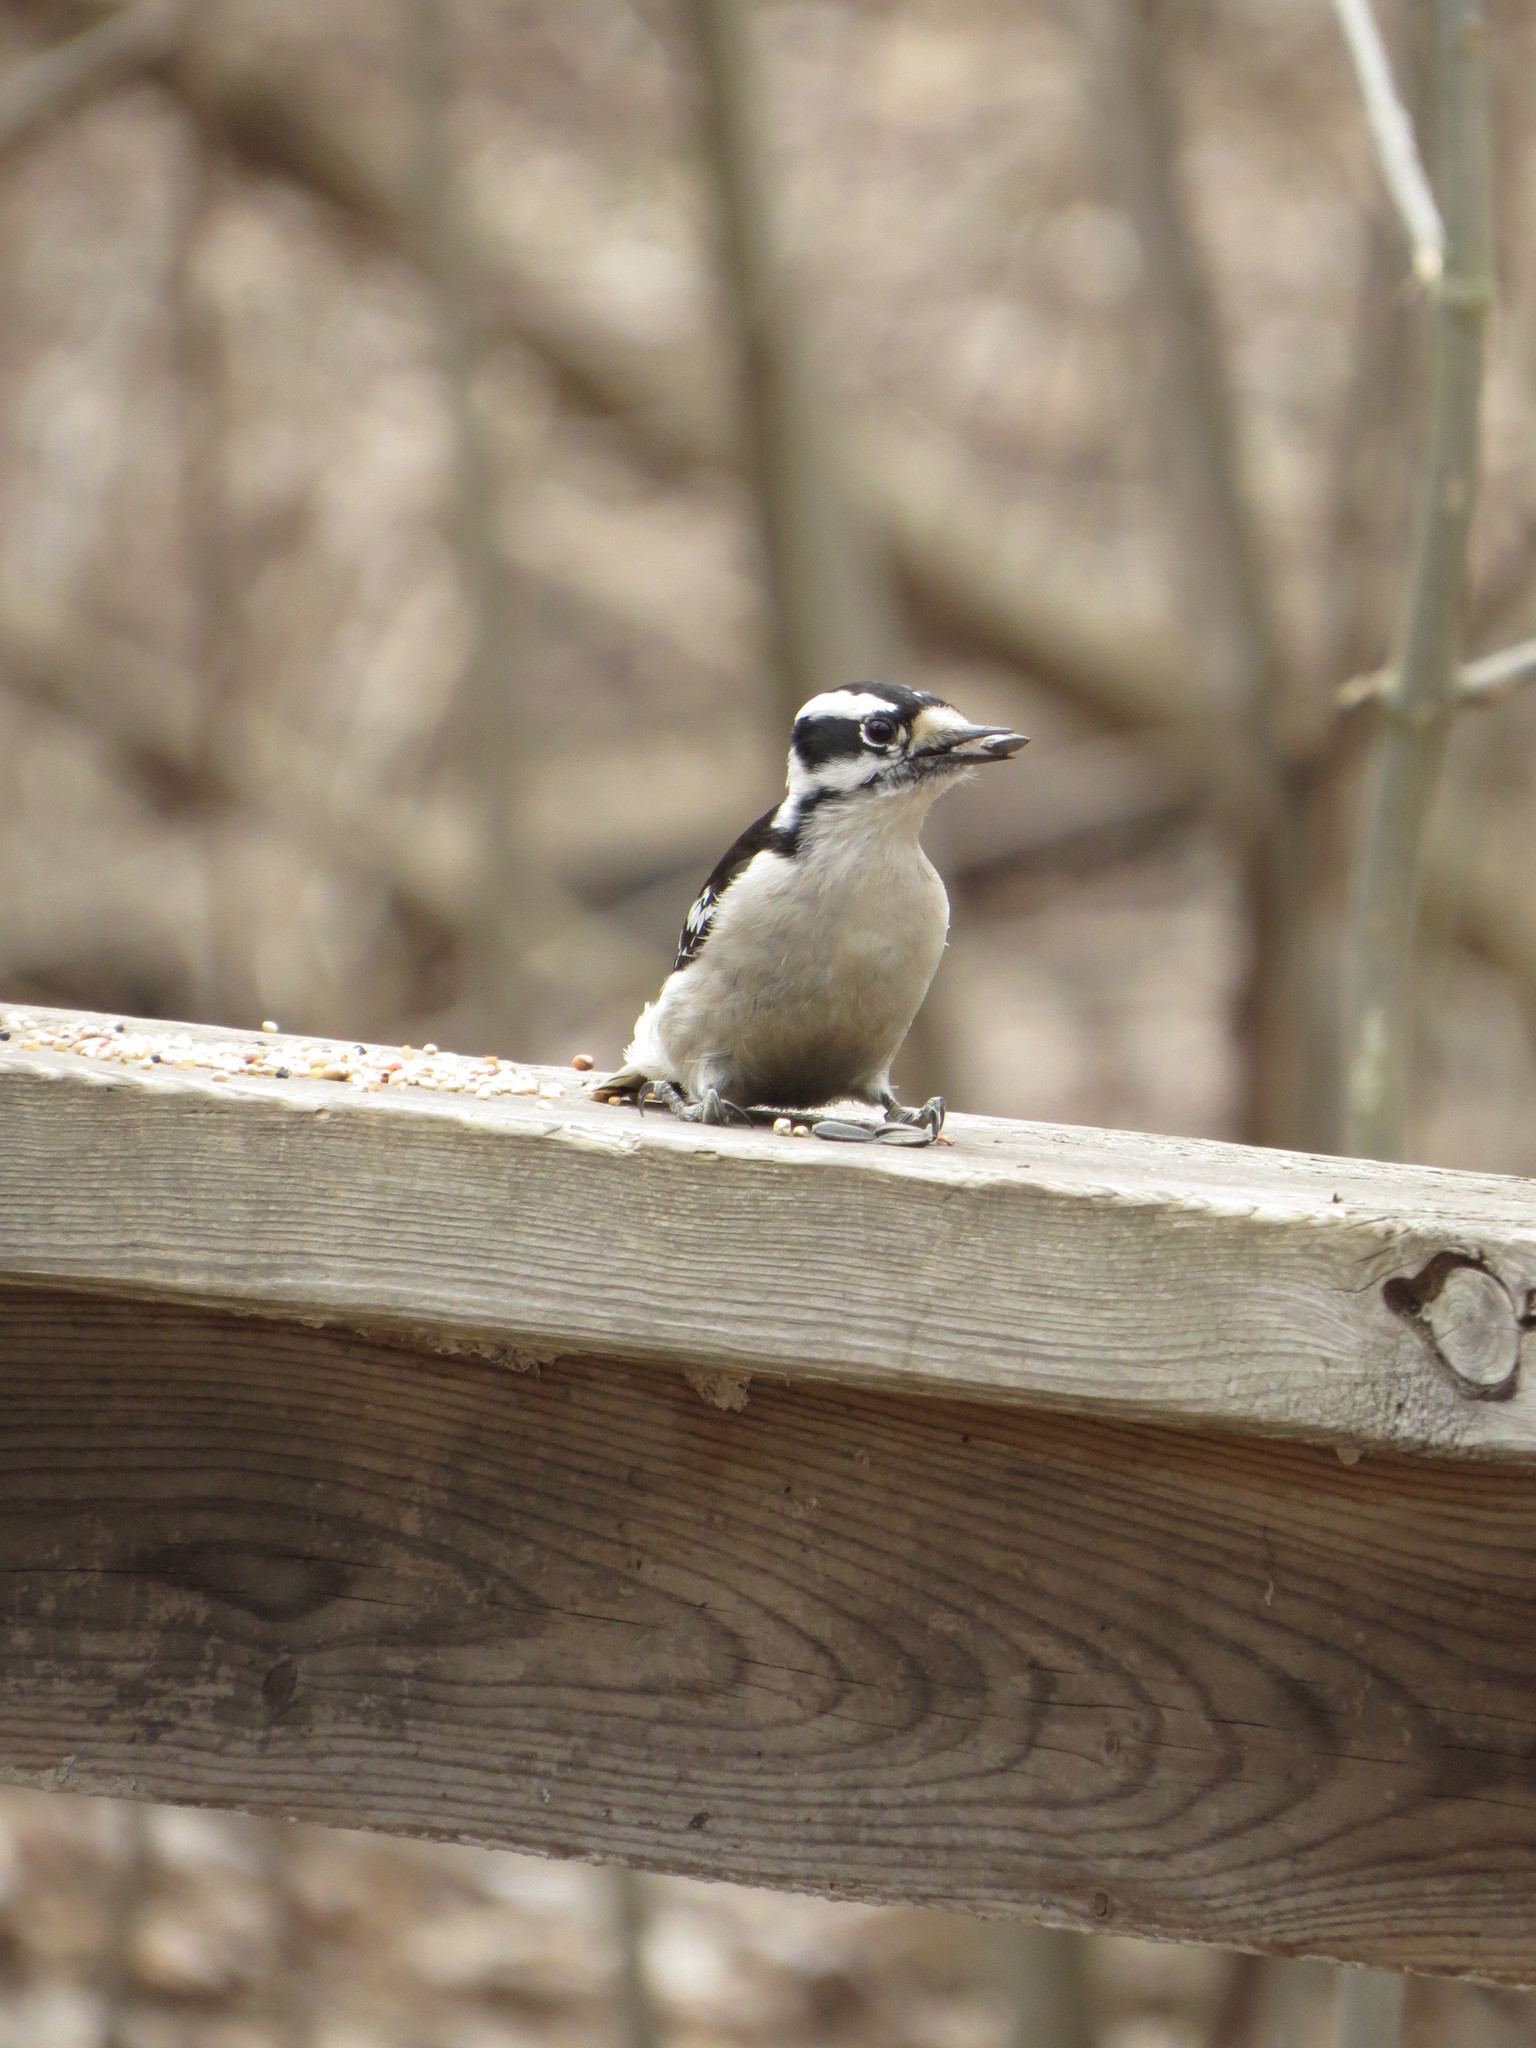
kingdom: Animalia
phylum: Chordata
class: Aves
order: Piciformes
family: Picidae
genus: Dryobates
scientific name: Dryobates pubescens
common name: Downy woodpecker
